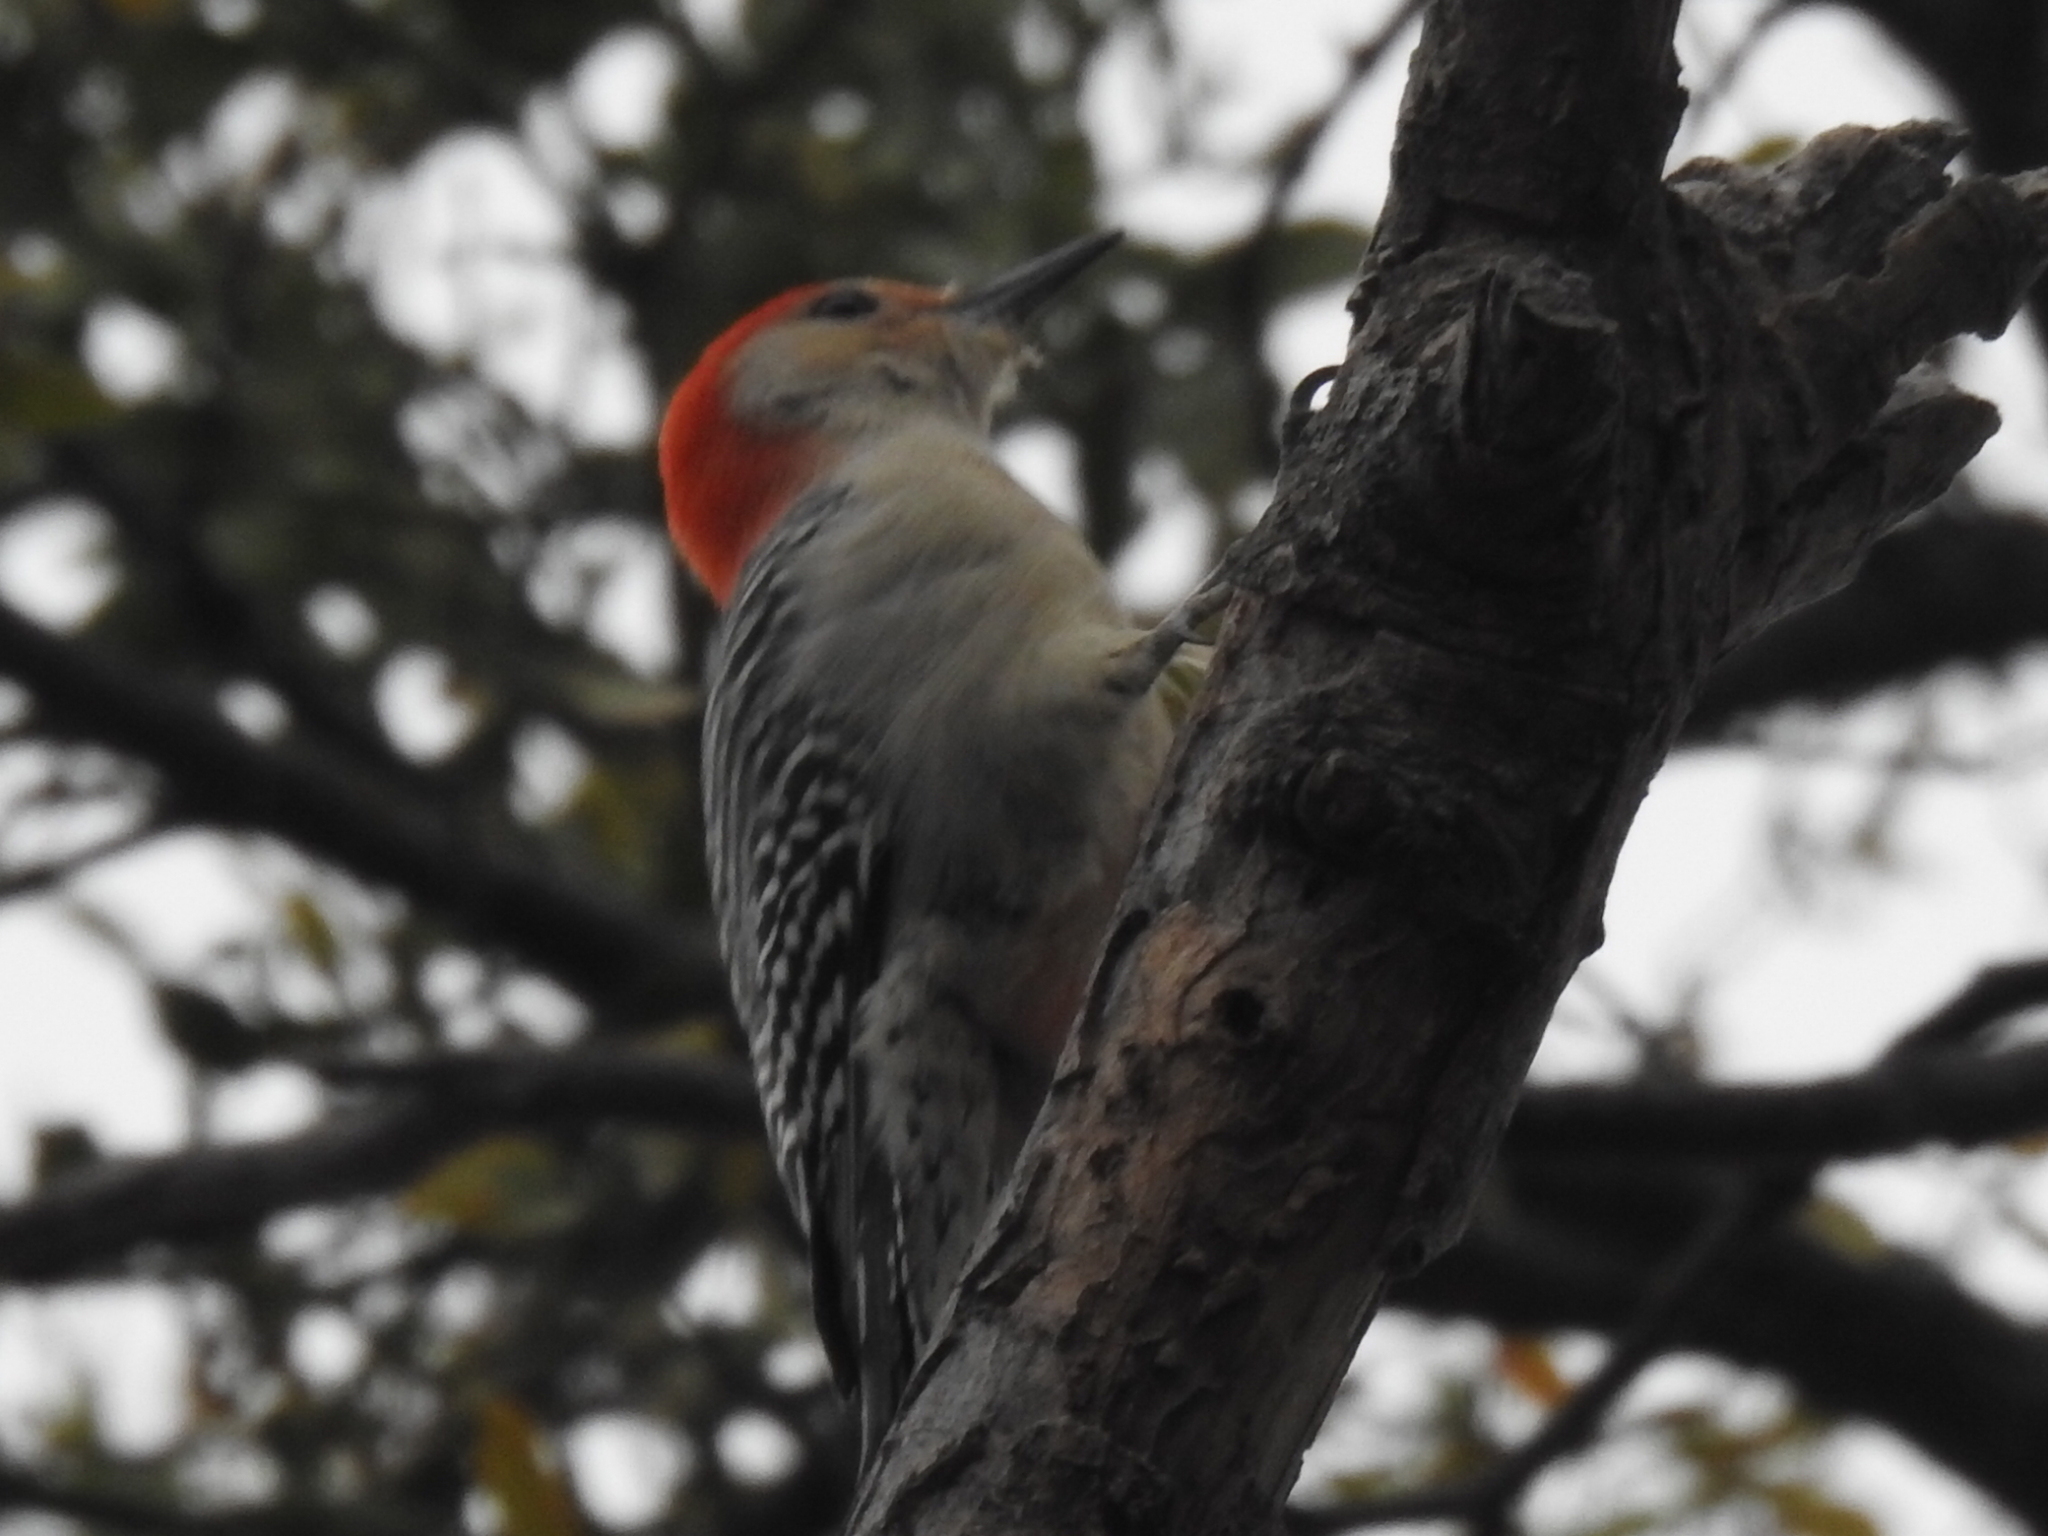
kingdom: Animalia
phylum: Chordata
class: Aves
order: Piciformes
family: Picidae
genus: Melanerpes
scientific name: Melanerpes carolinus
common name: Red-bellied woodpecker
